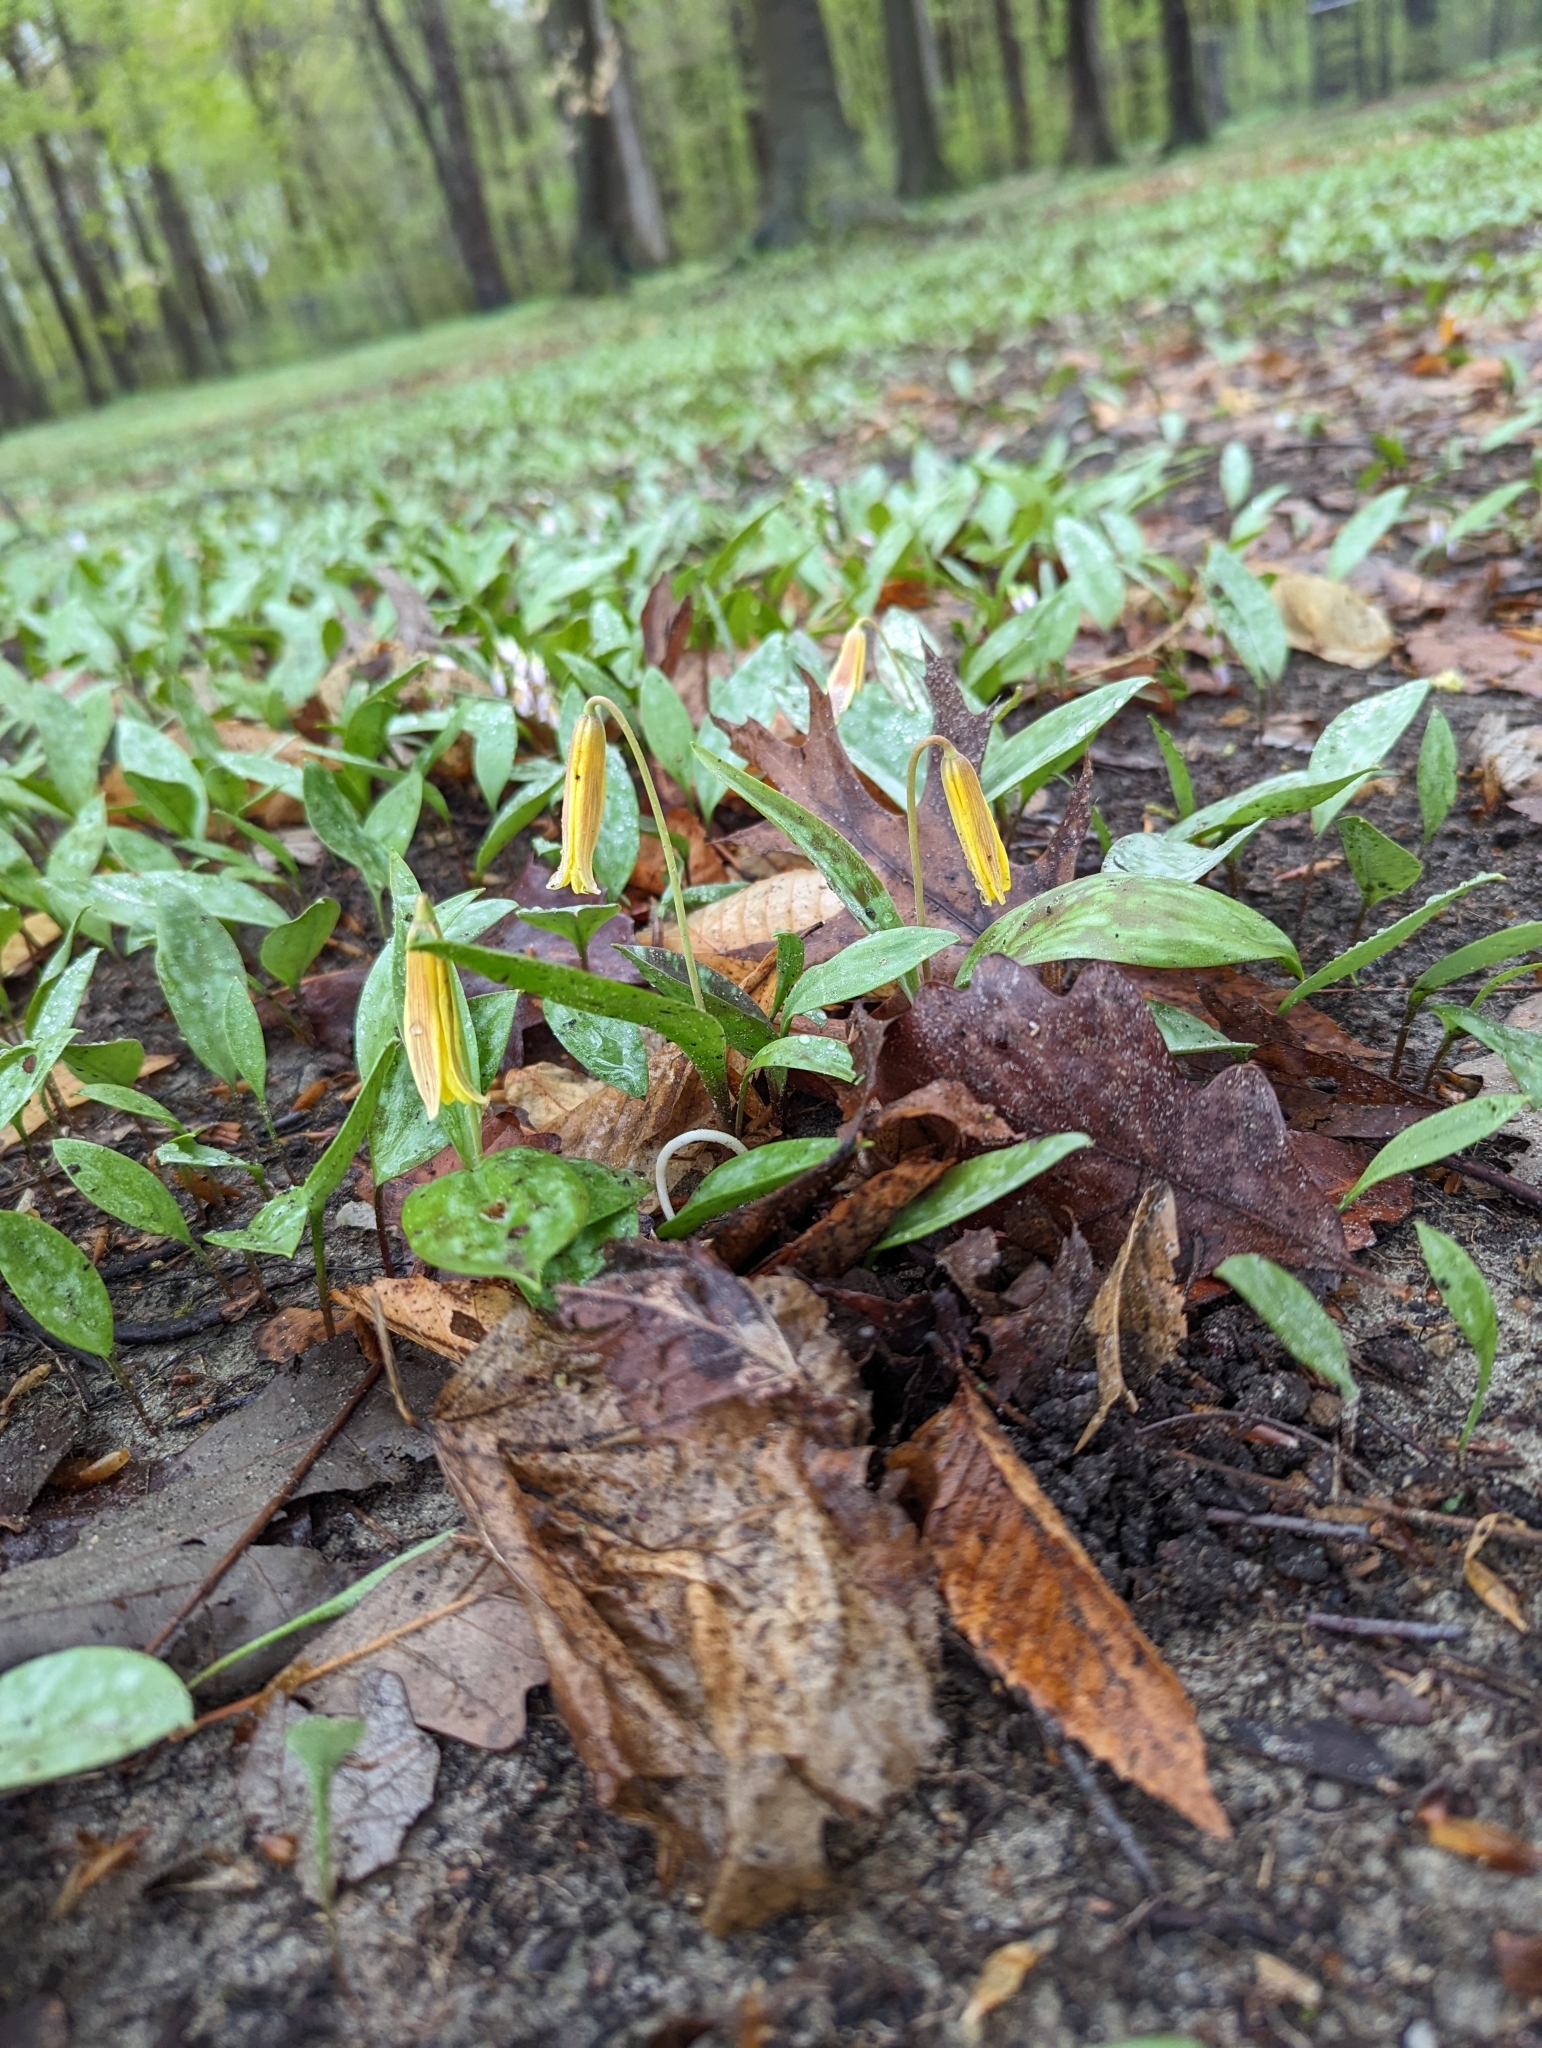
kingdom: Plantae
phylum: Tracheophyta
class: Liliopsida
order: Liliales
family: Liliaceae
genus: Erythronium
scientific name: Erythronium americanum
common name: Yellow adder's-tongue
